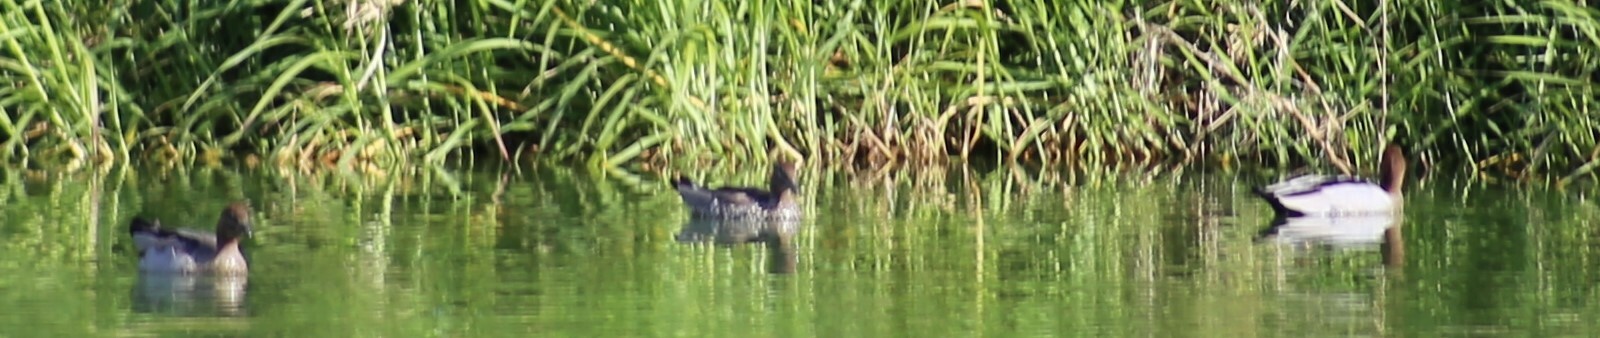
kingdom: Animalia
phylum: Chordata
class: Aves
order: Anseriformes
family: Anatidae
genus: Chenonetta
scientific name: Chenonetta jubata
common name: Maned duck
